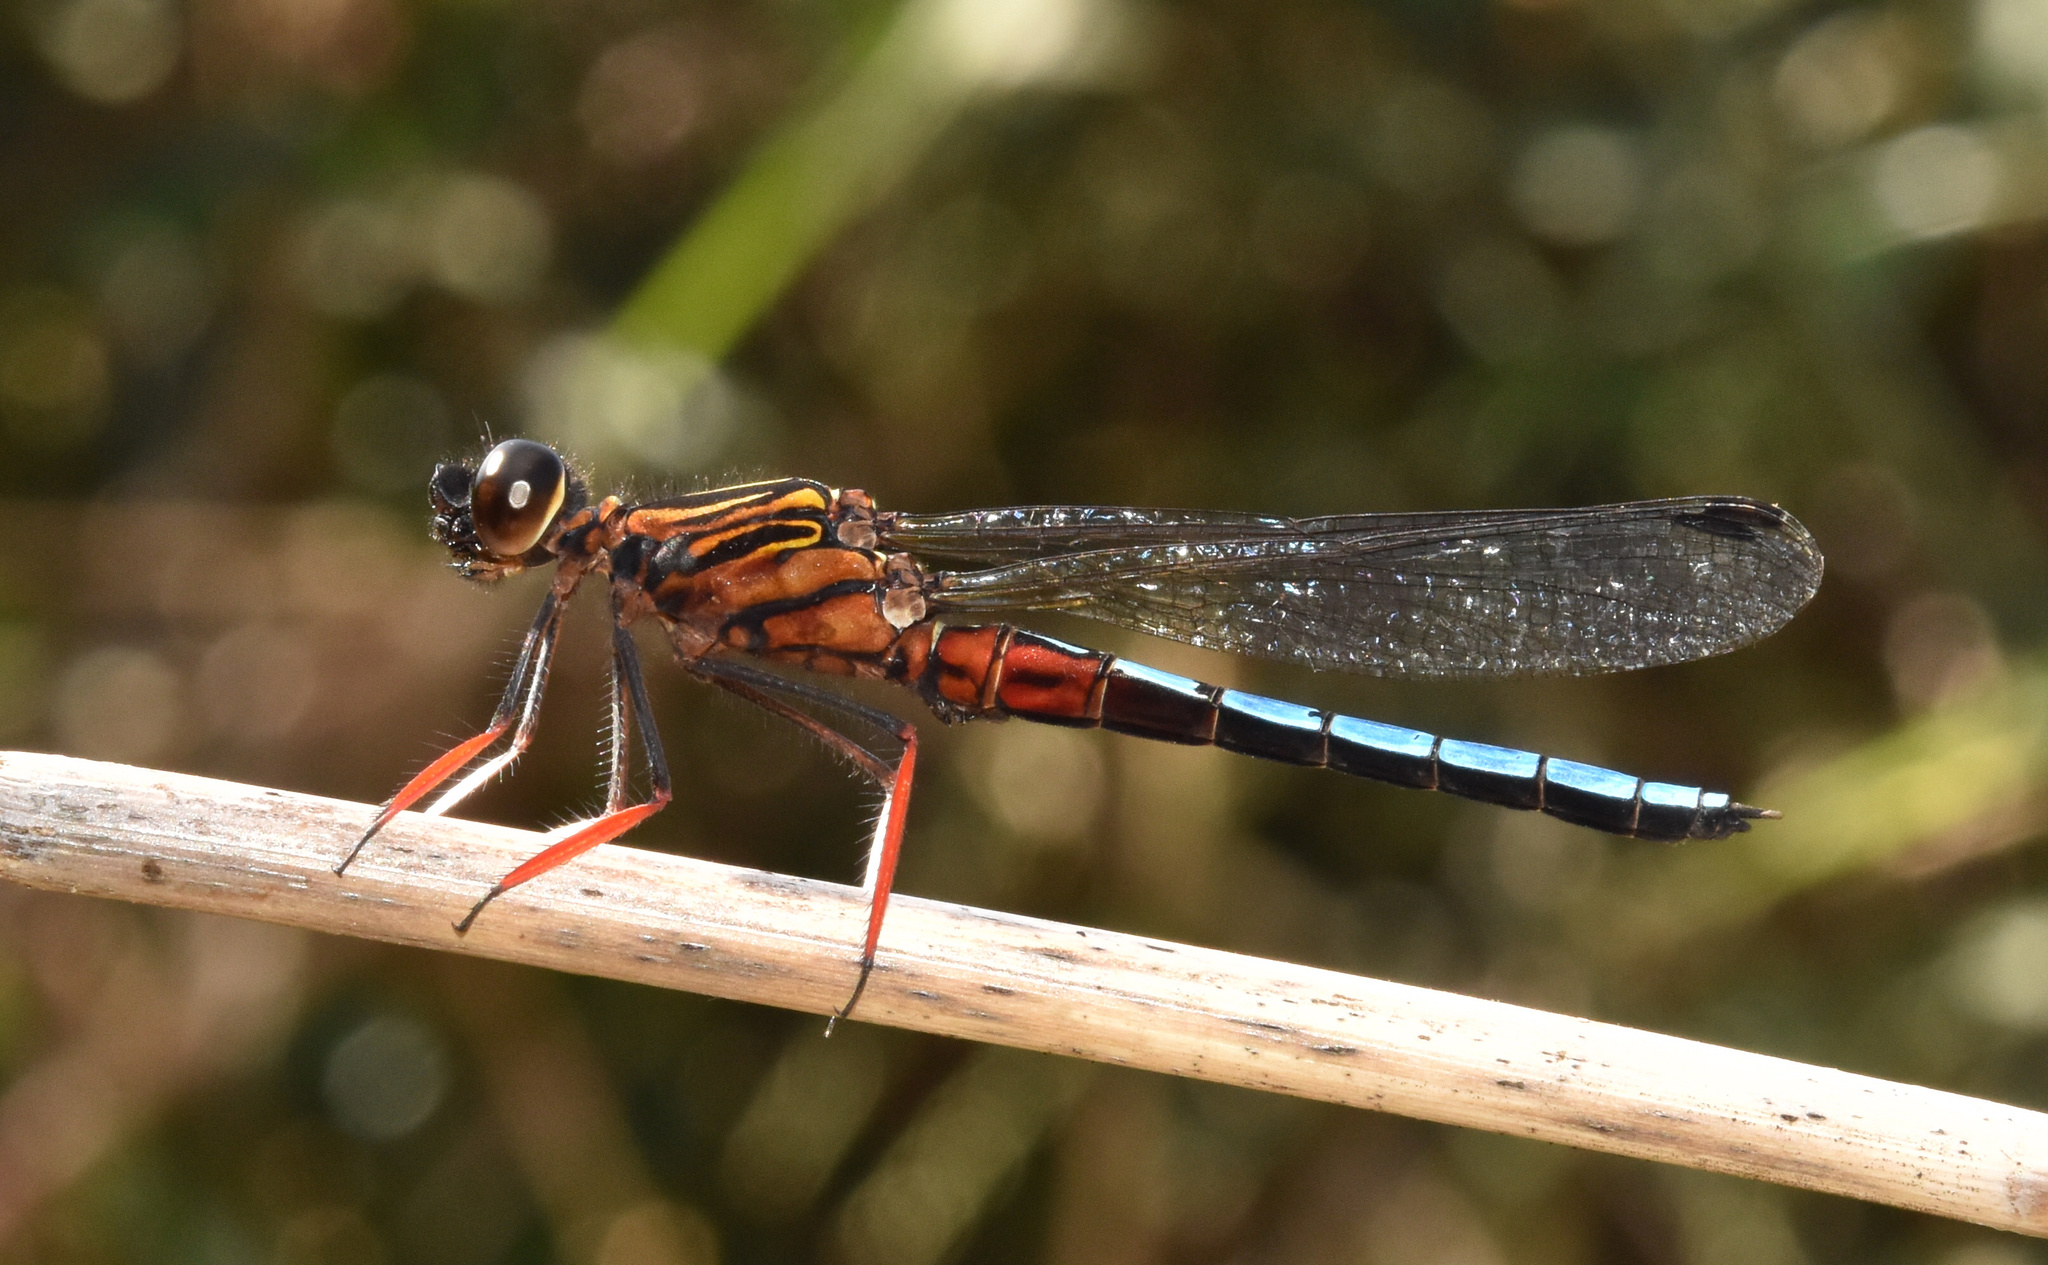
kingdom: Animalia
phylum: Arthropoda
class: Insecta
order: Odonata
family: Chlorocyphidae
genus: Platycypha
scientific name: Platycypha caligata
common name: Dancing jewel
